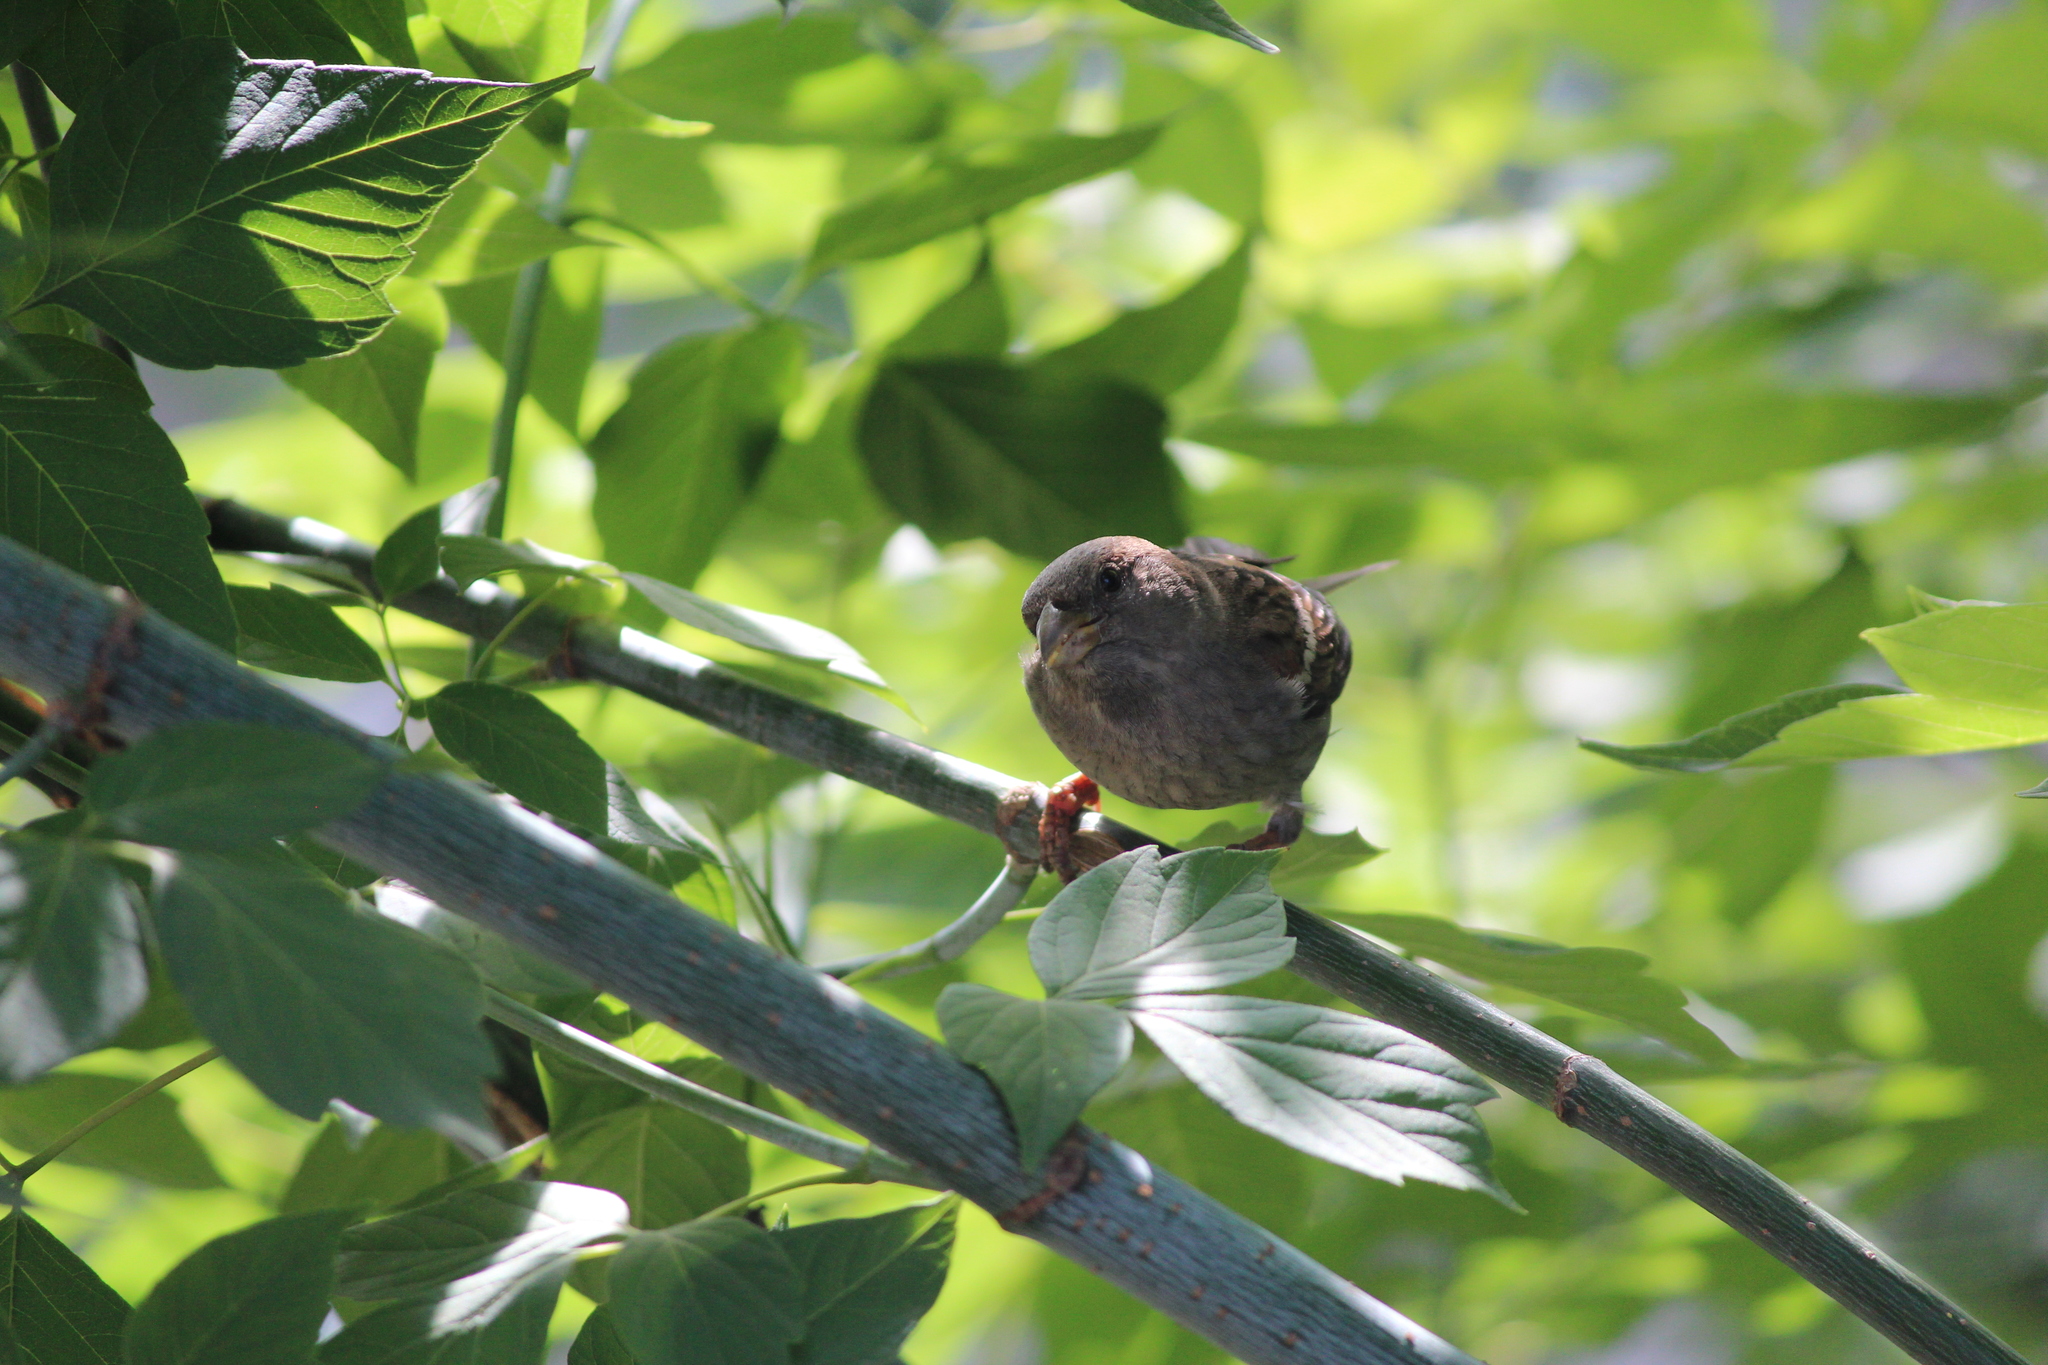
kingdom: Animalia
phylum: Chordata
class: Aves
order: Passeriformes
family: Passeridae
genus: Passer
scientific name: Passer domesticus
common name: House sparrow
